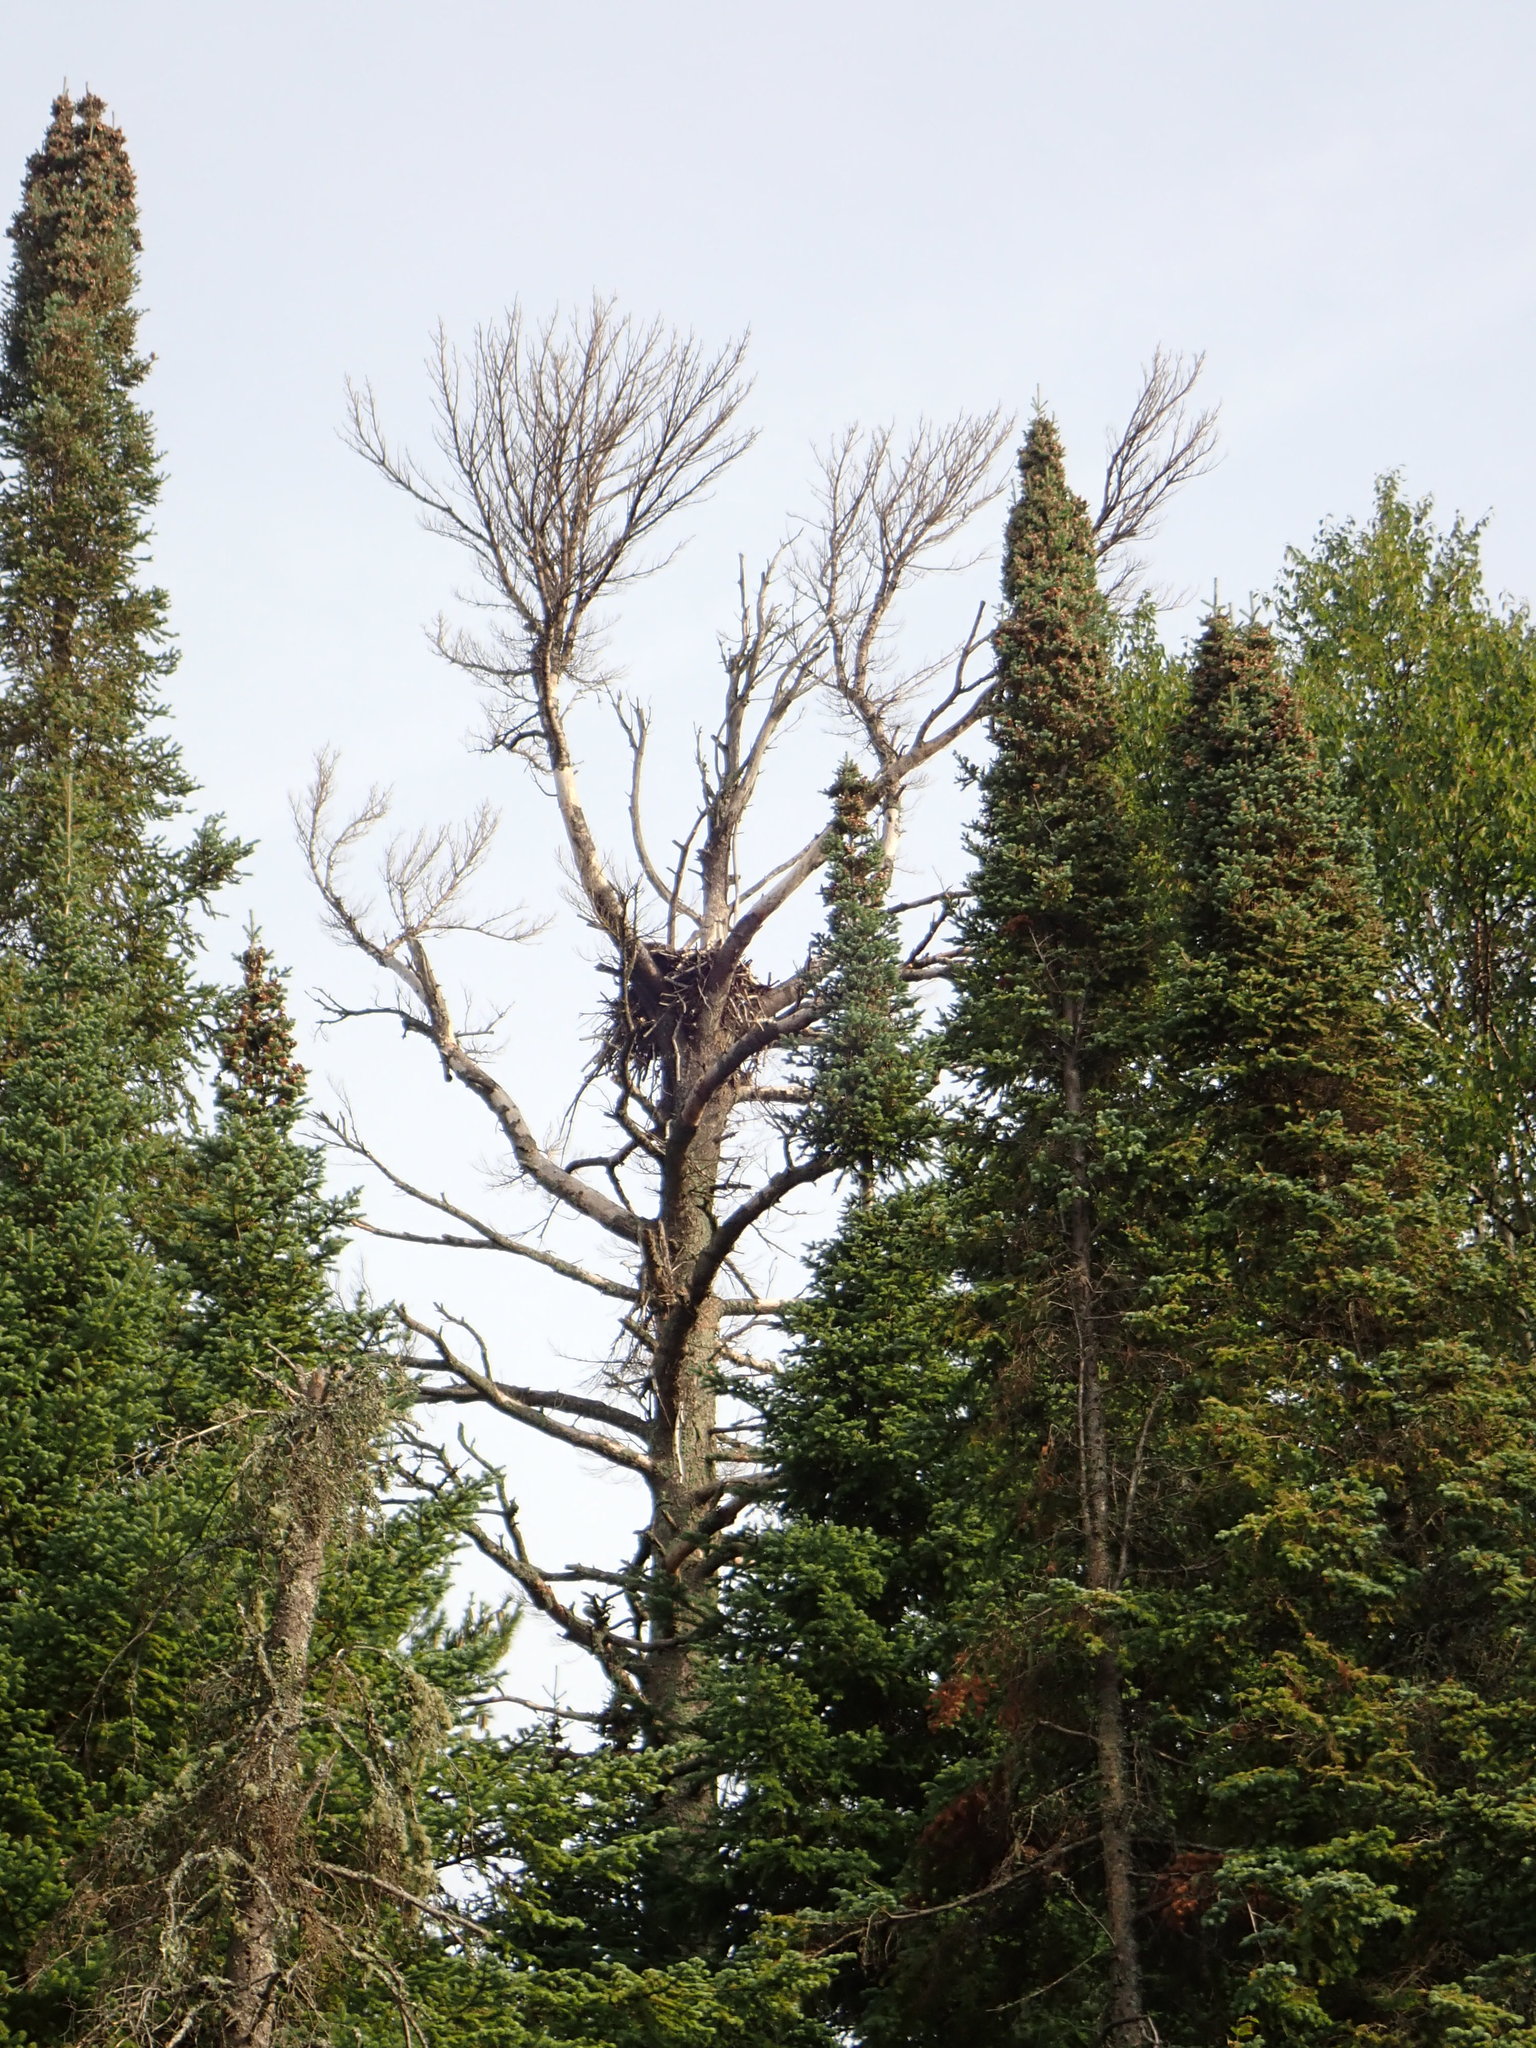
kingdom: Animalia
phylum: Chordata
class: Aves
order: Accipitriformes
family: Accipitridae
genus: Haliaeetus
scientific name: Haliaeetus leucocephalus
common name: Bald eagle
